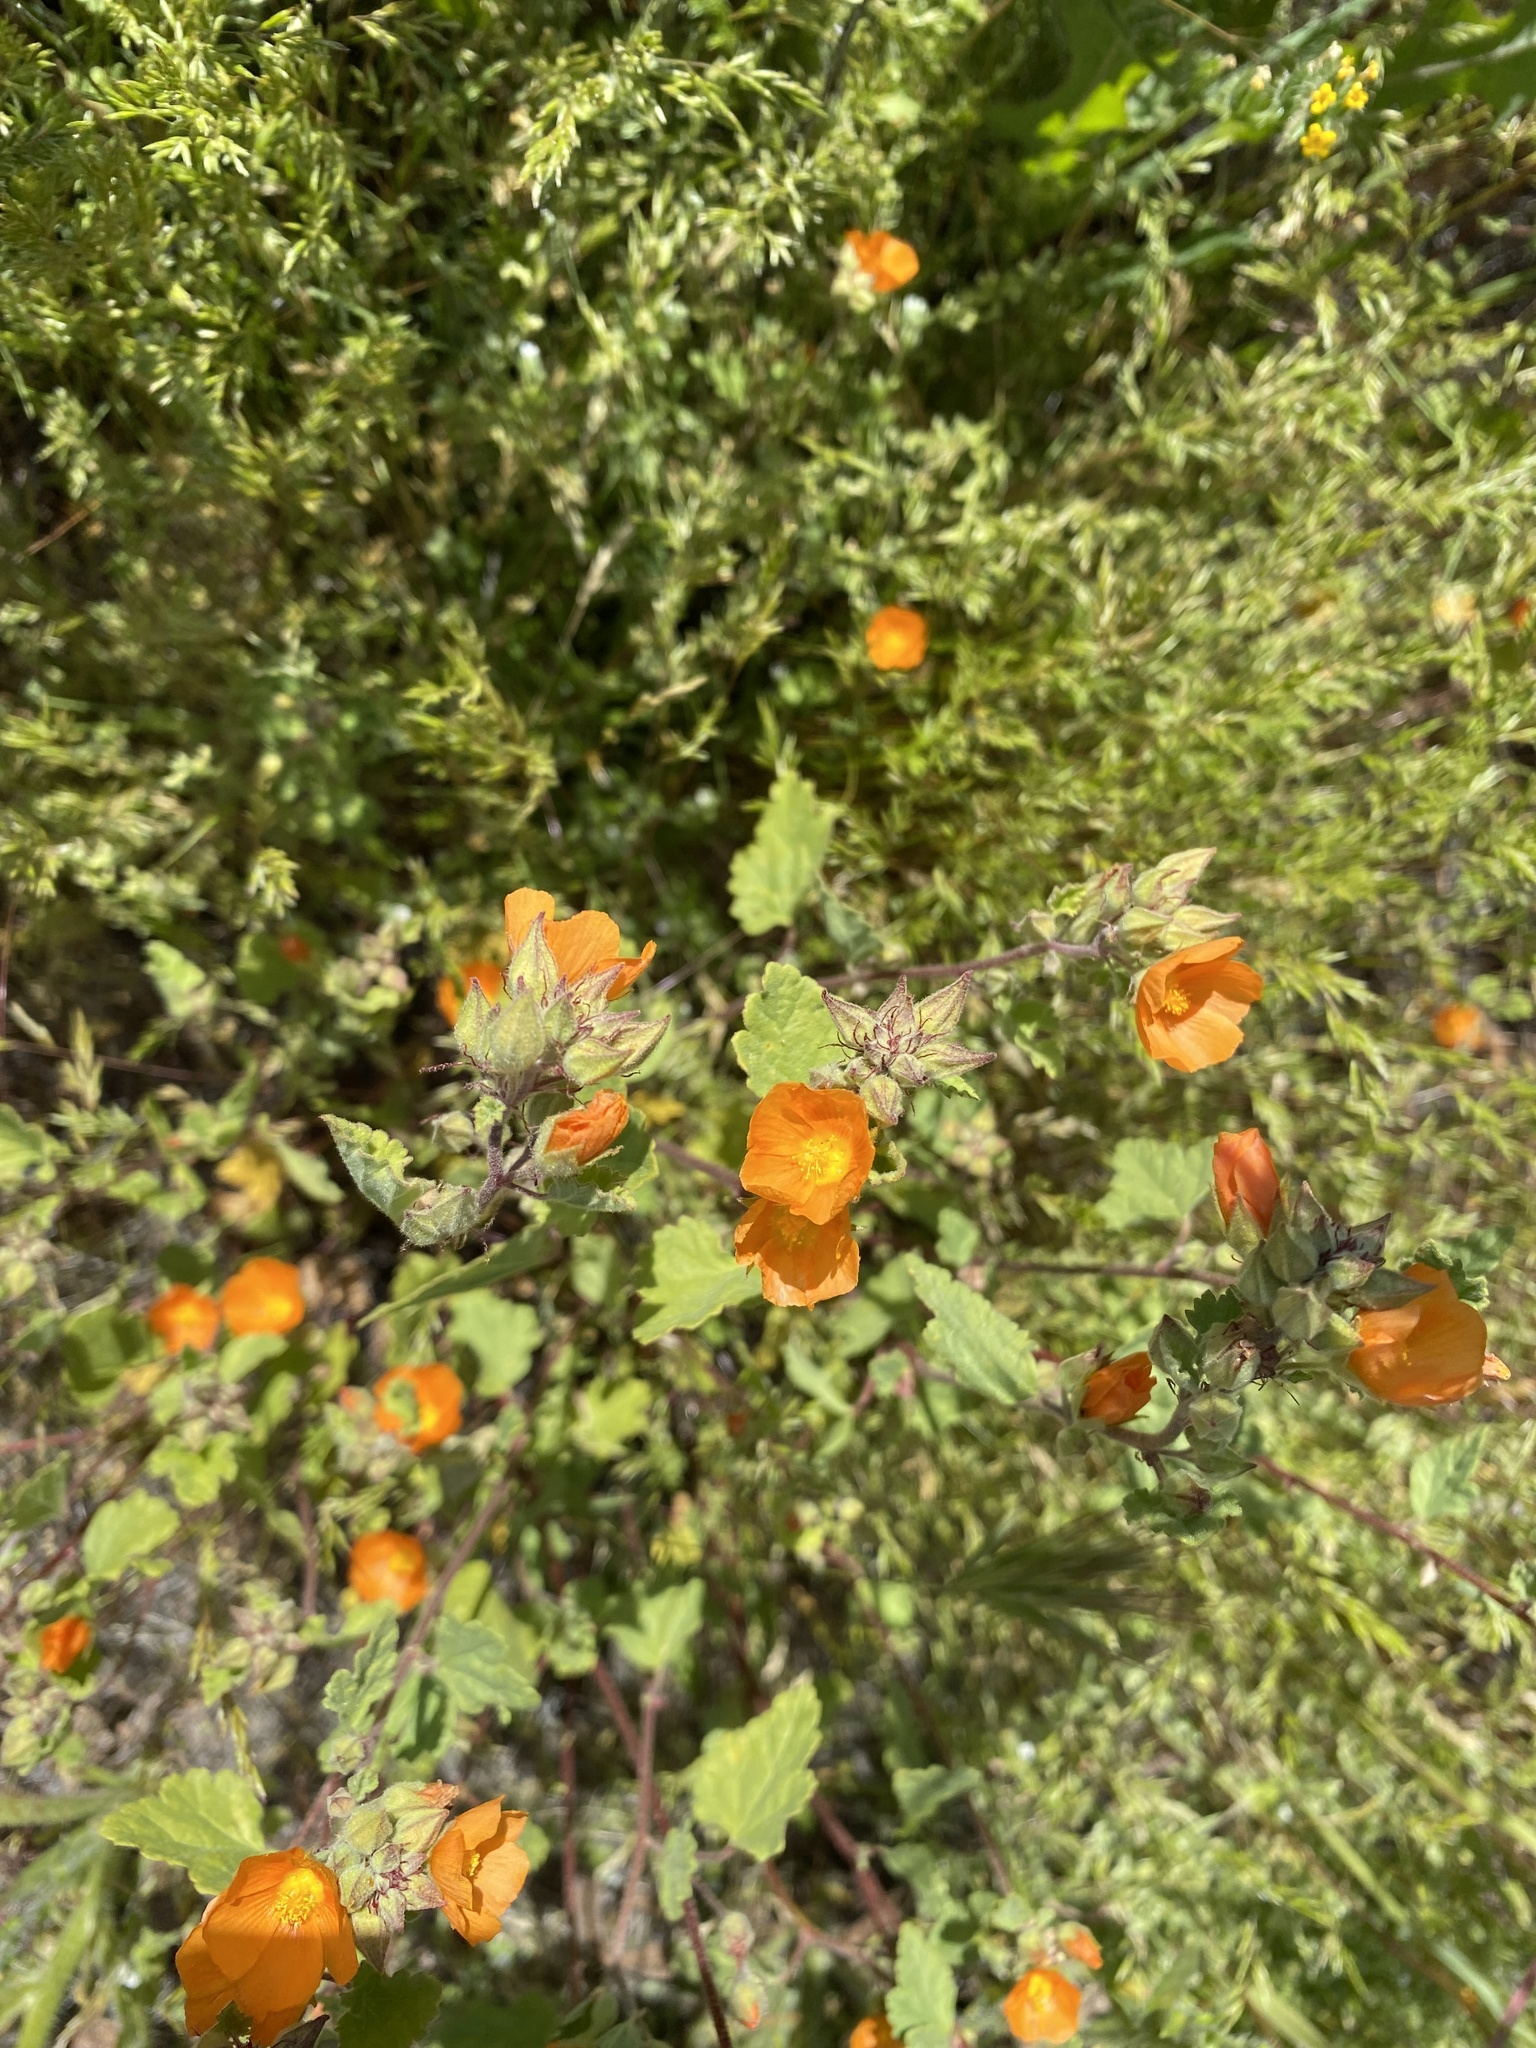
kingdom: Plantae
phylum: Tracheophyta
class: Magnoliopsida
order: Malvales
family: Malvaceae
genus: Sphaeralcea
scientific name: Sphaeralcea coulteri
